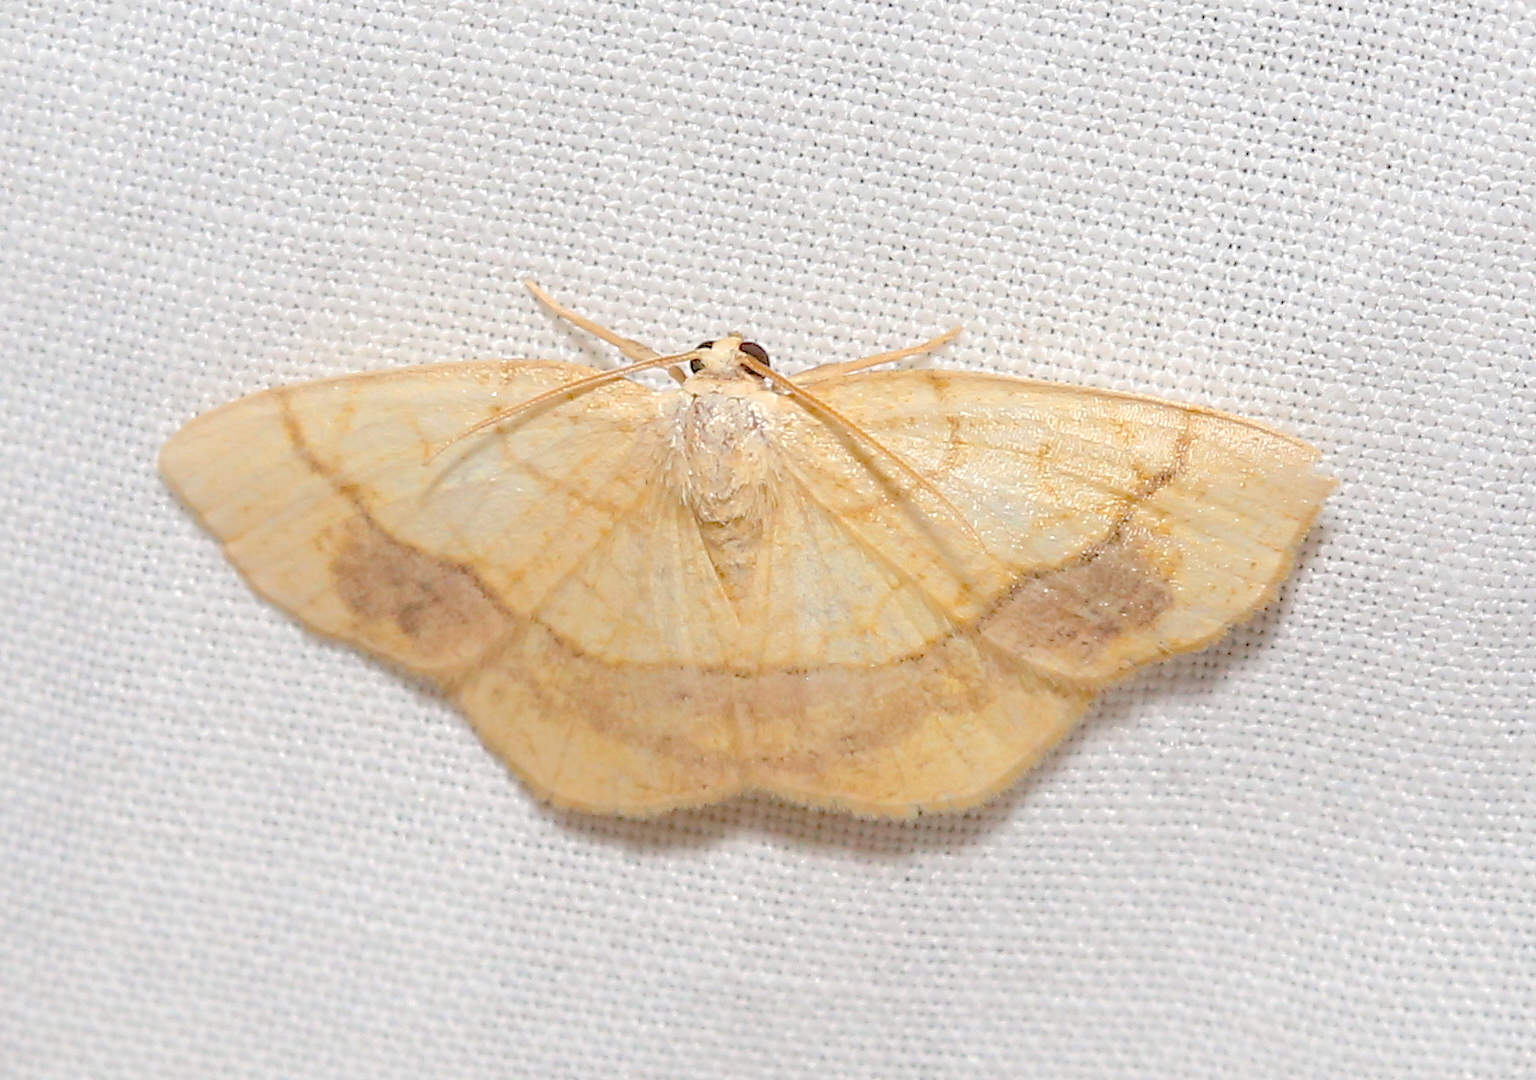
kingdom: Animalia
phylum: Arthropoda
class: Insecta
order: Lepidoptera
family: Geometridae
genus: Nematocampa
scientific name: Nematocampa resistaria
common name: Horned spanworm moth
